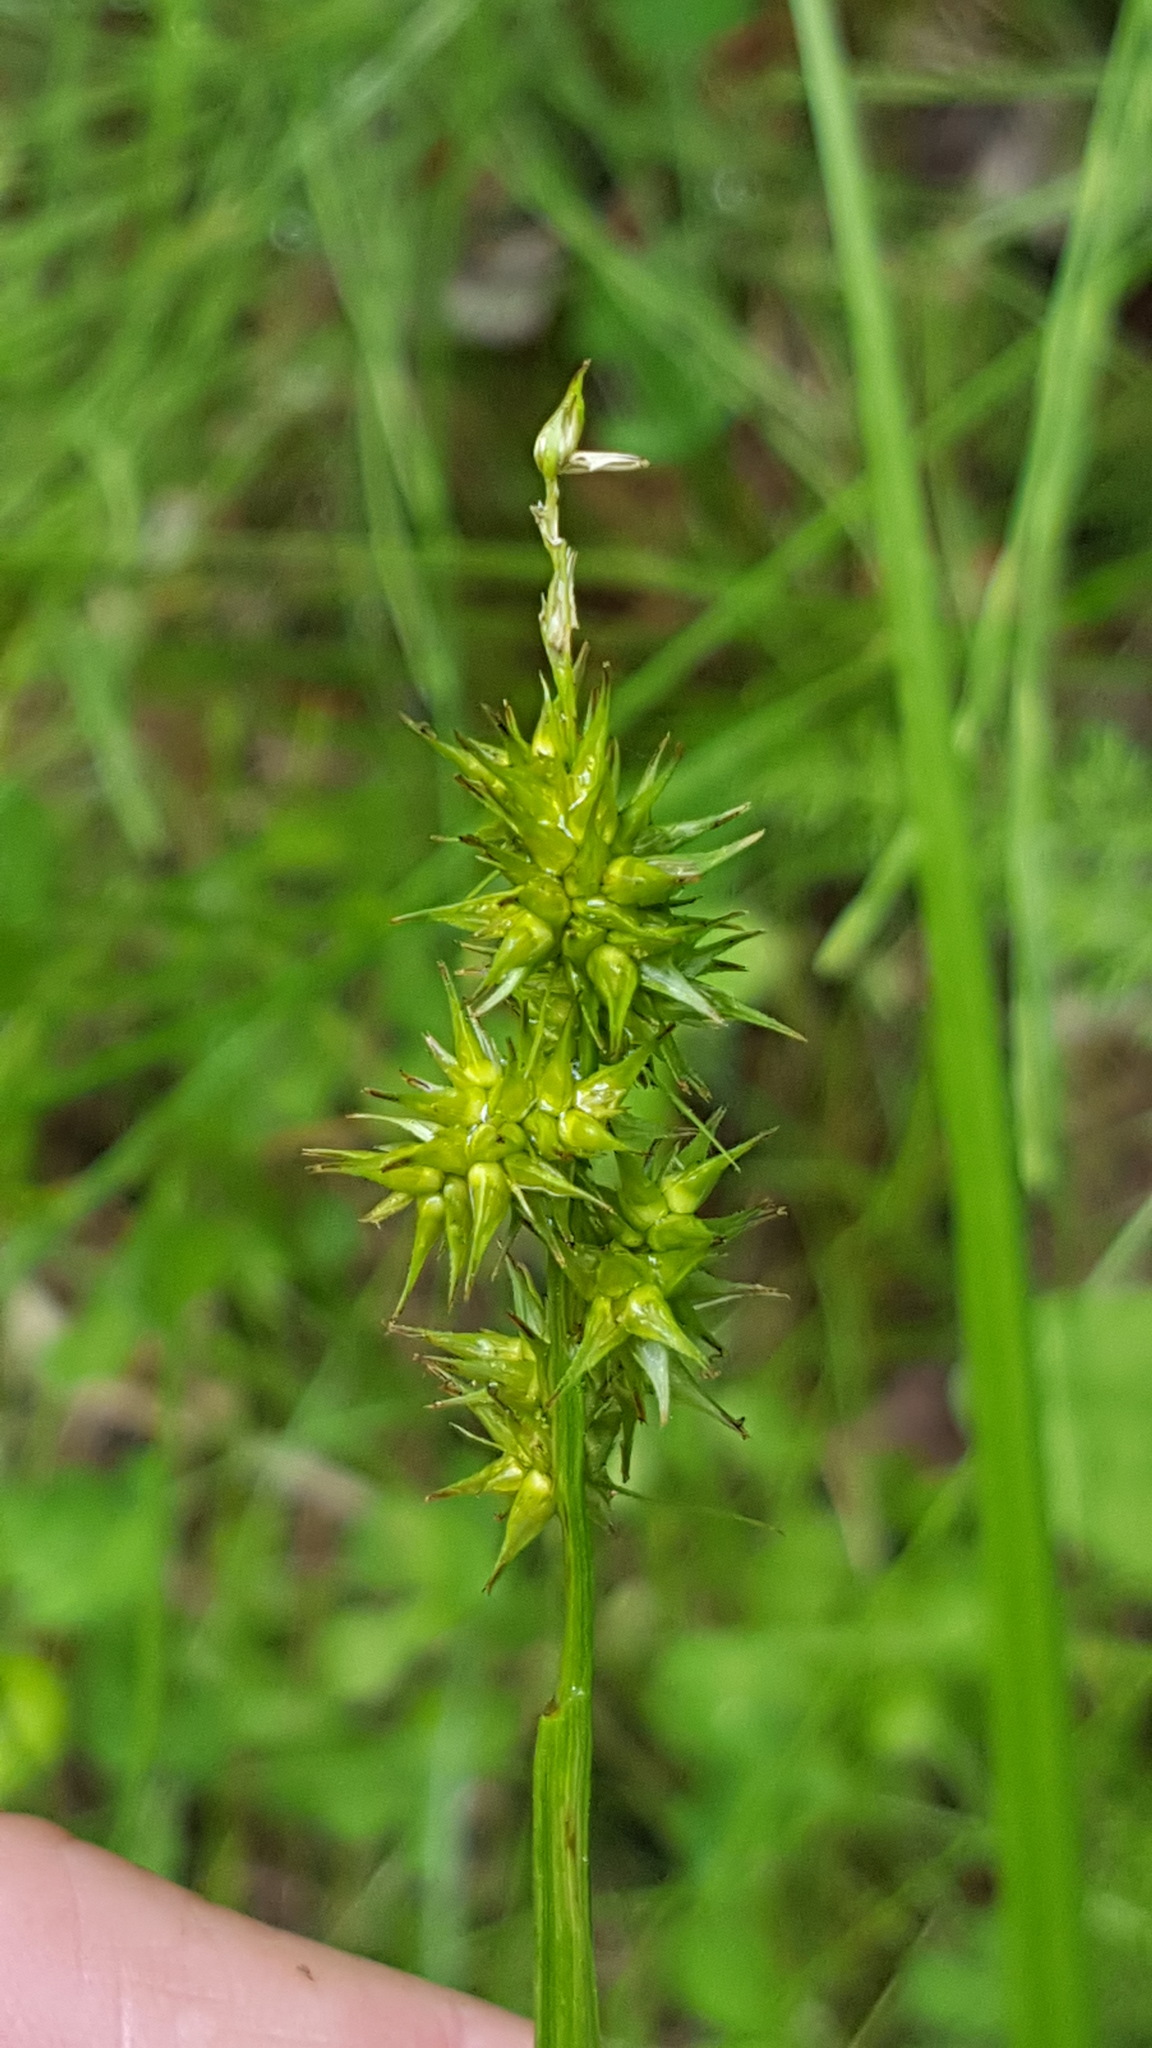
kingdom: Plantae
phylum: Tracheophyta
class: Liliopsida
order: Poales
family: Cyperaceae
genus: Carex
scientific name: Carex stipata
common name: Awl-fruited sedge
